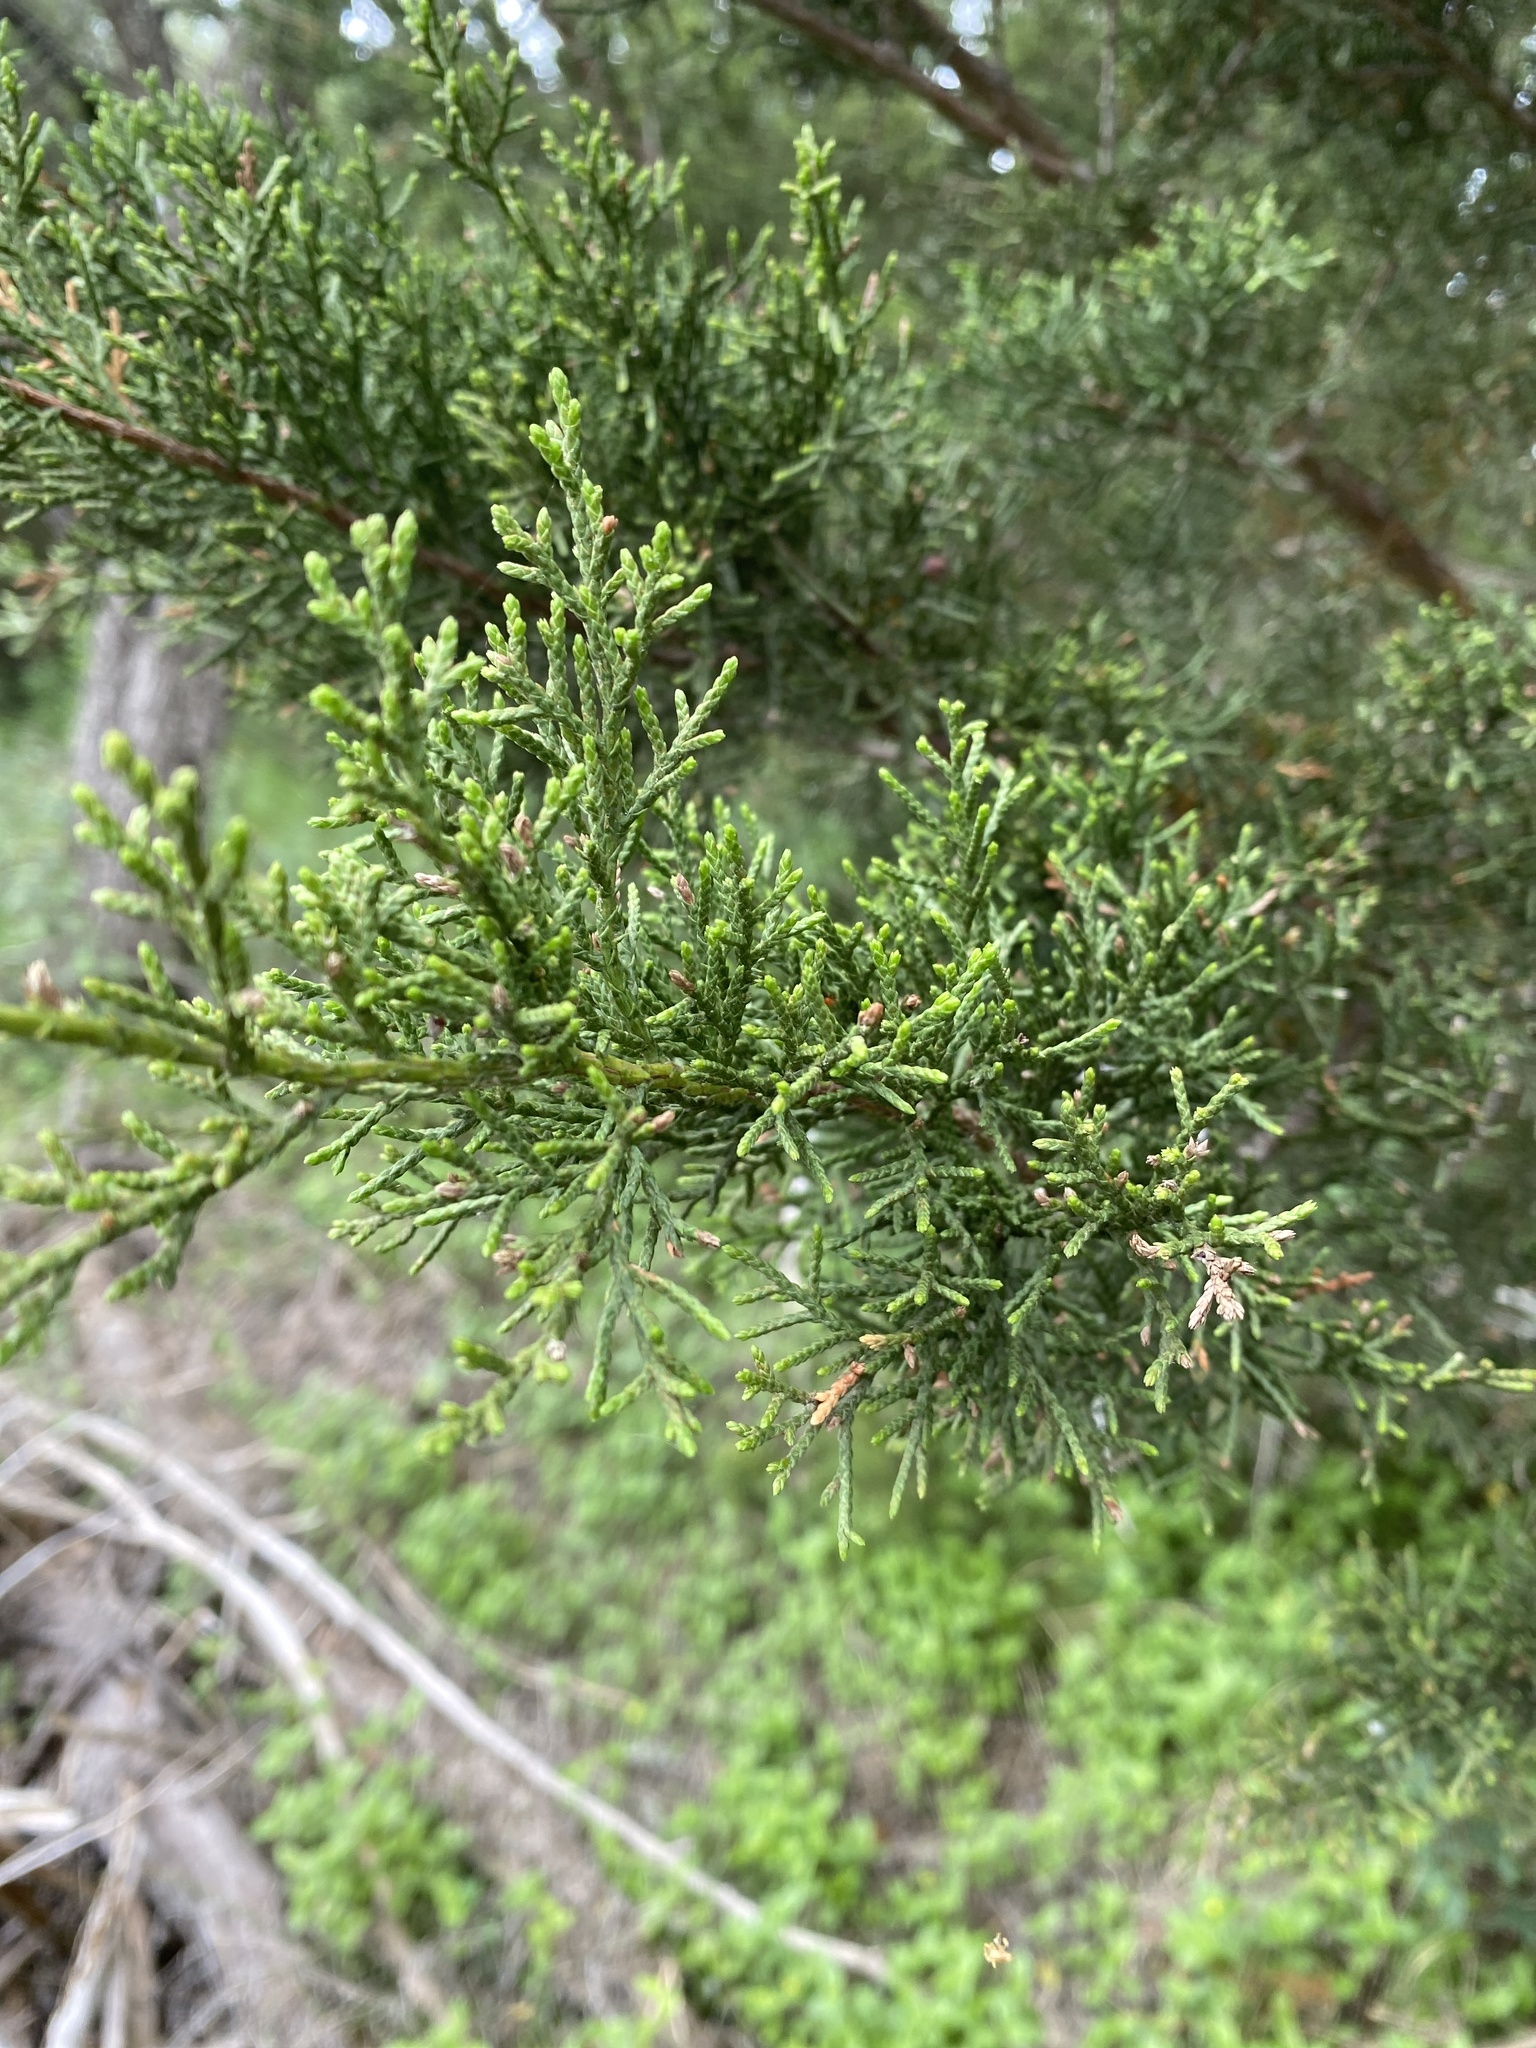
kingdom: Plantae
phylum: Tracheophyta
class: Pinopsida
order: Pinales
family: Cupressaceae
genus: Juniperus
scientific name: Juniperus ashei
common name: Mexican juniper
